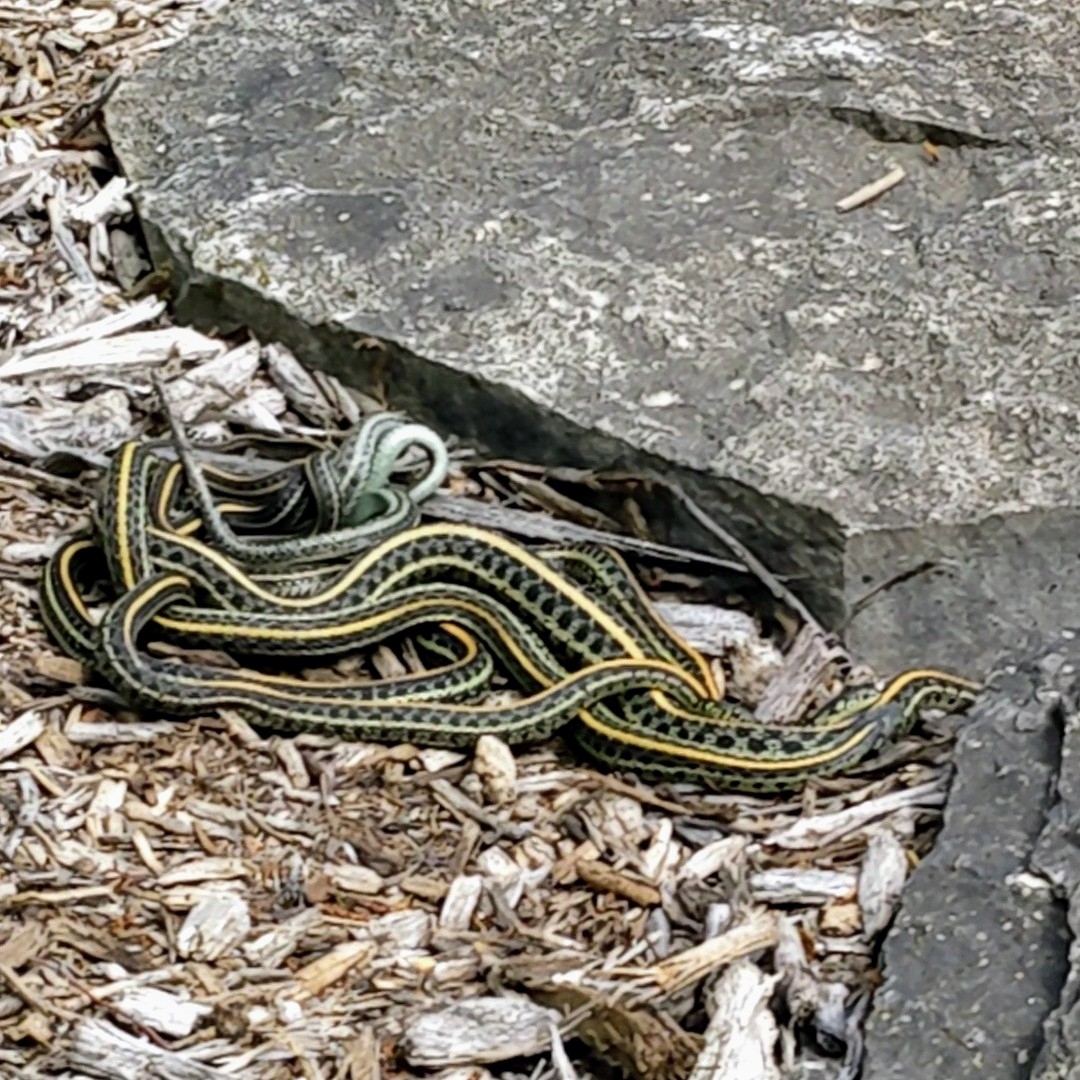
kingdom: Animalia
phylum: Chordata
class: Squamata
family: Colubridae
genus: Thamnophis
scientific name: Thamnophis radix
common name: Plains garter snake
